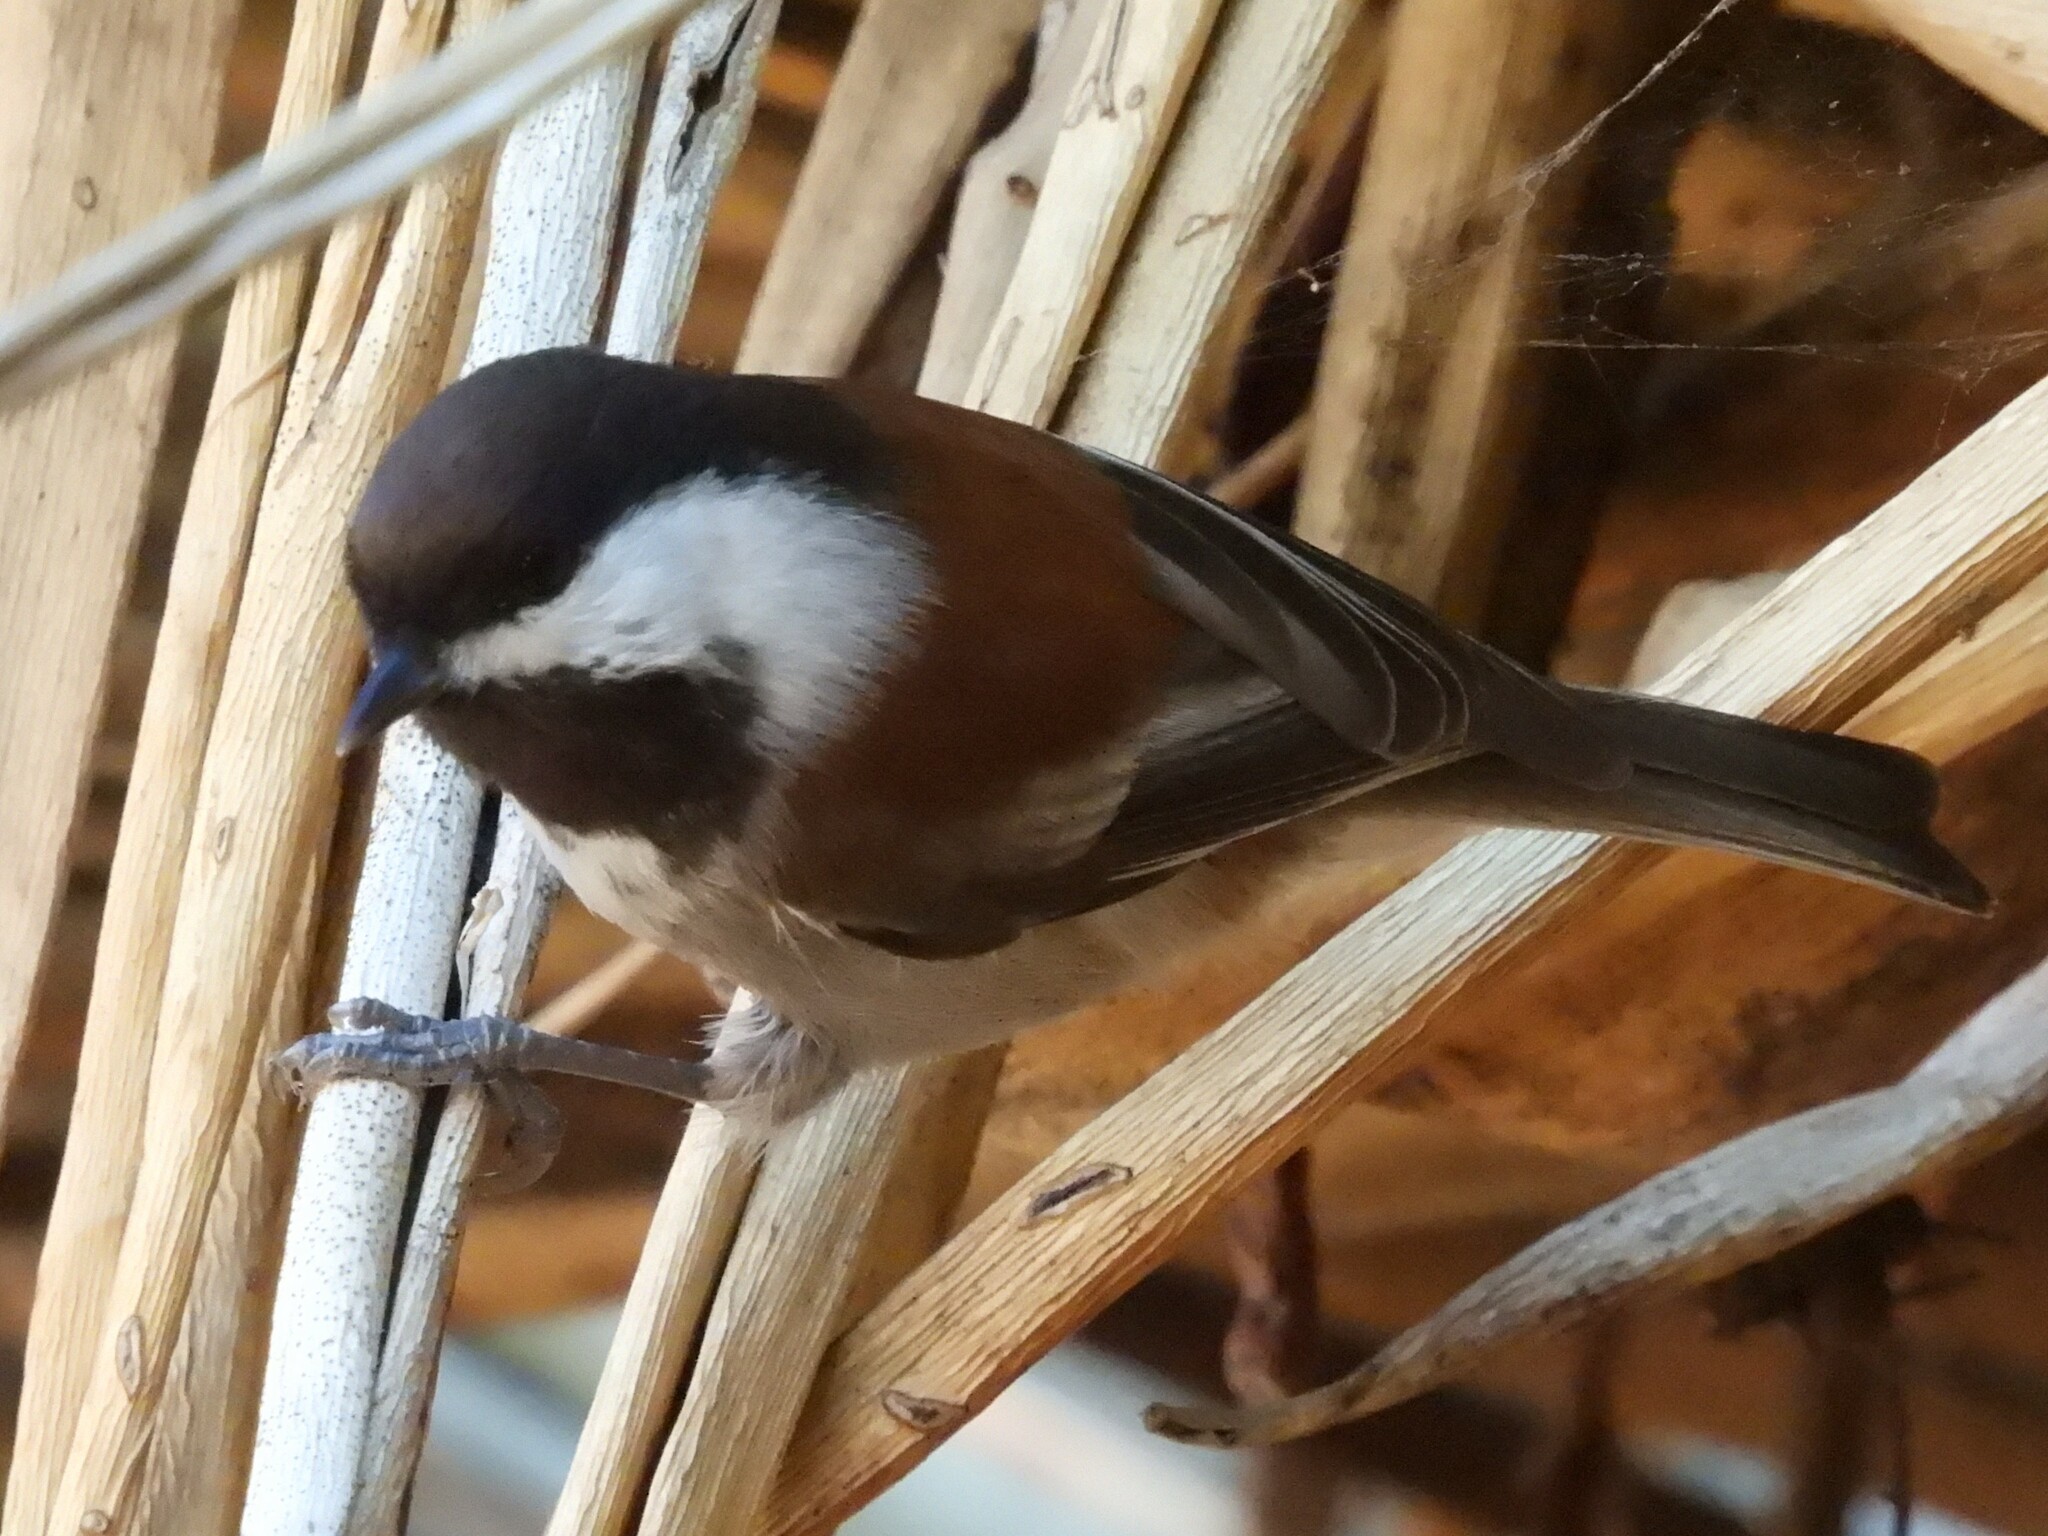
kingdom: Animalia
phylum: Chordata
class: Aves
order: Passeriformes
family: Paridae
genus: Poecile
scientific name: Poecile rufescens
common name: Chestnut-backed chickadee
